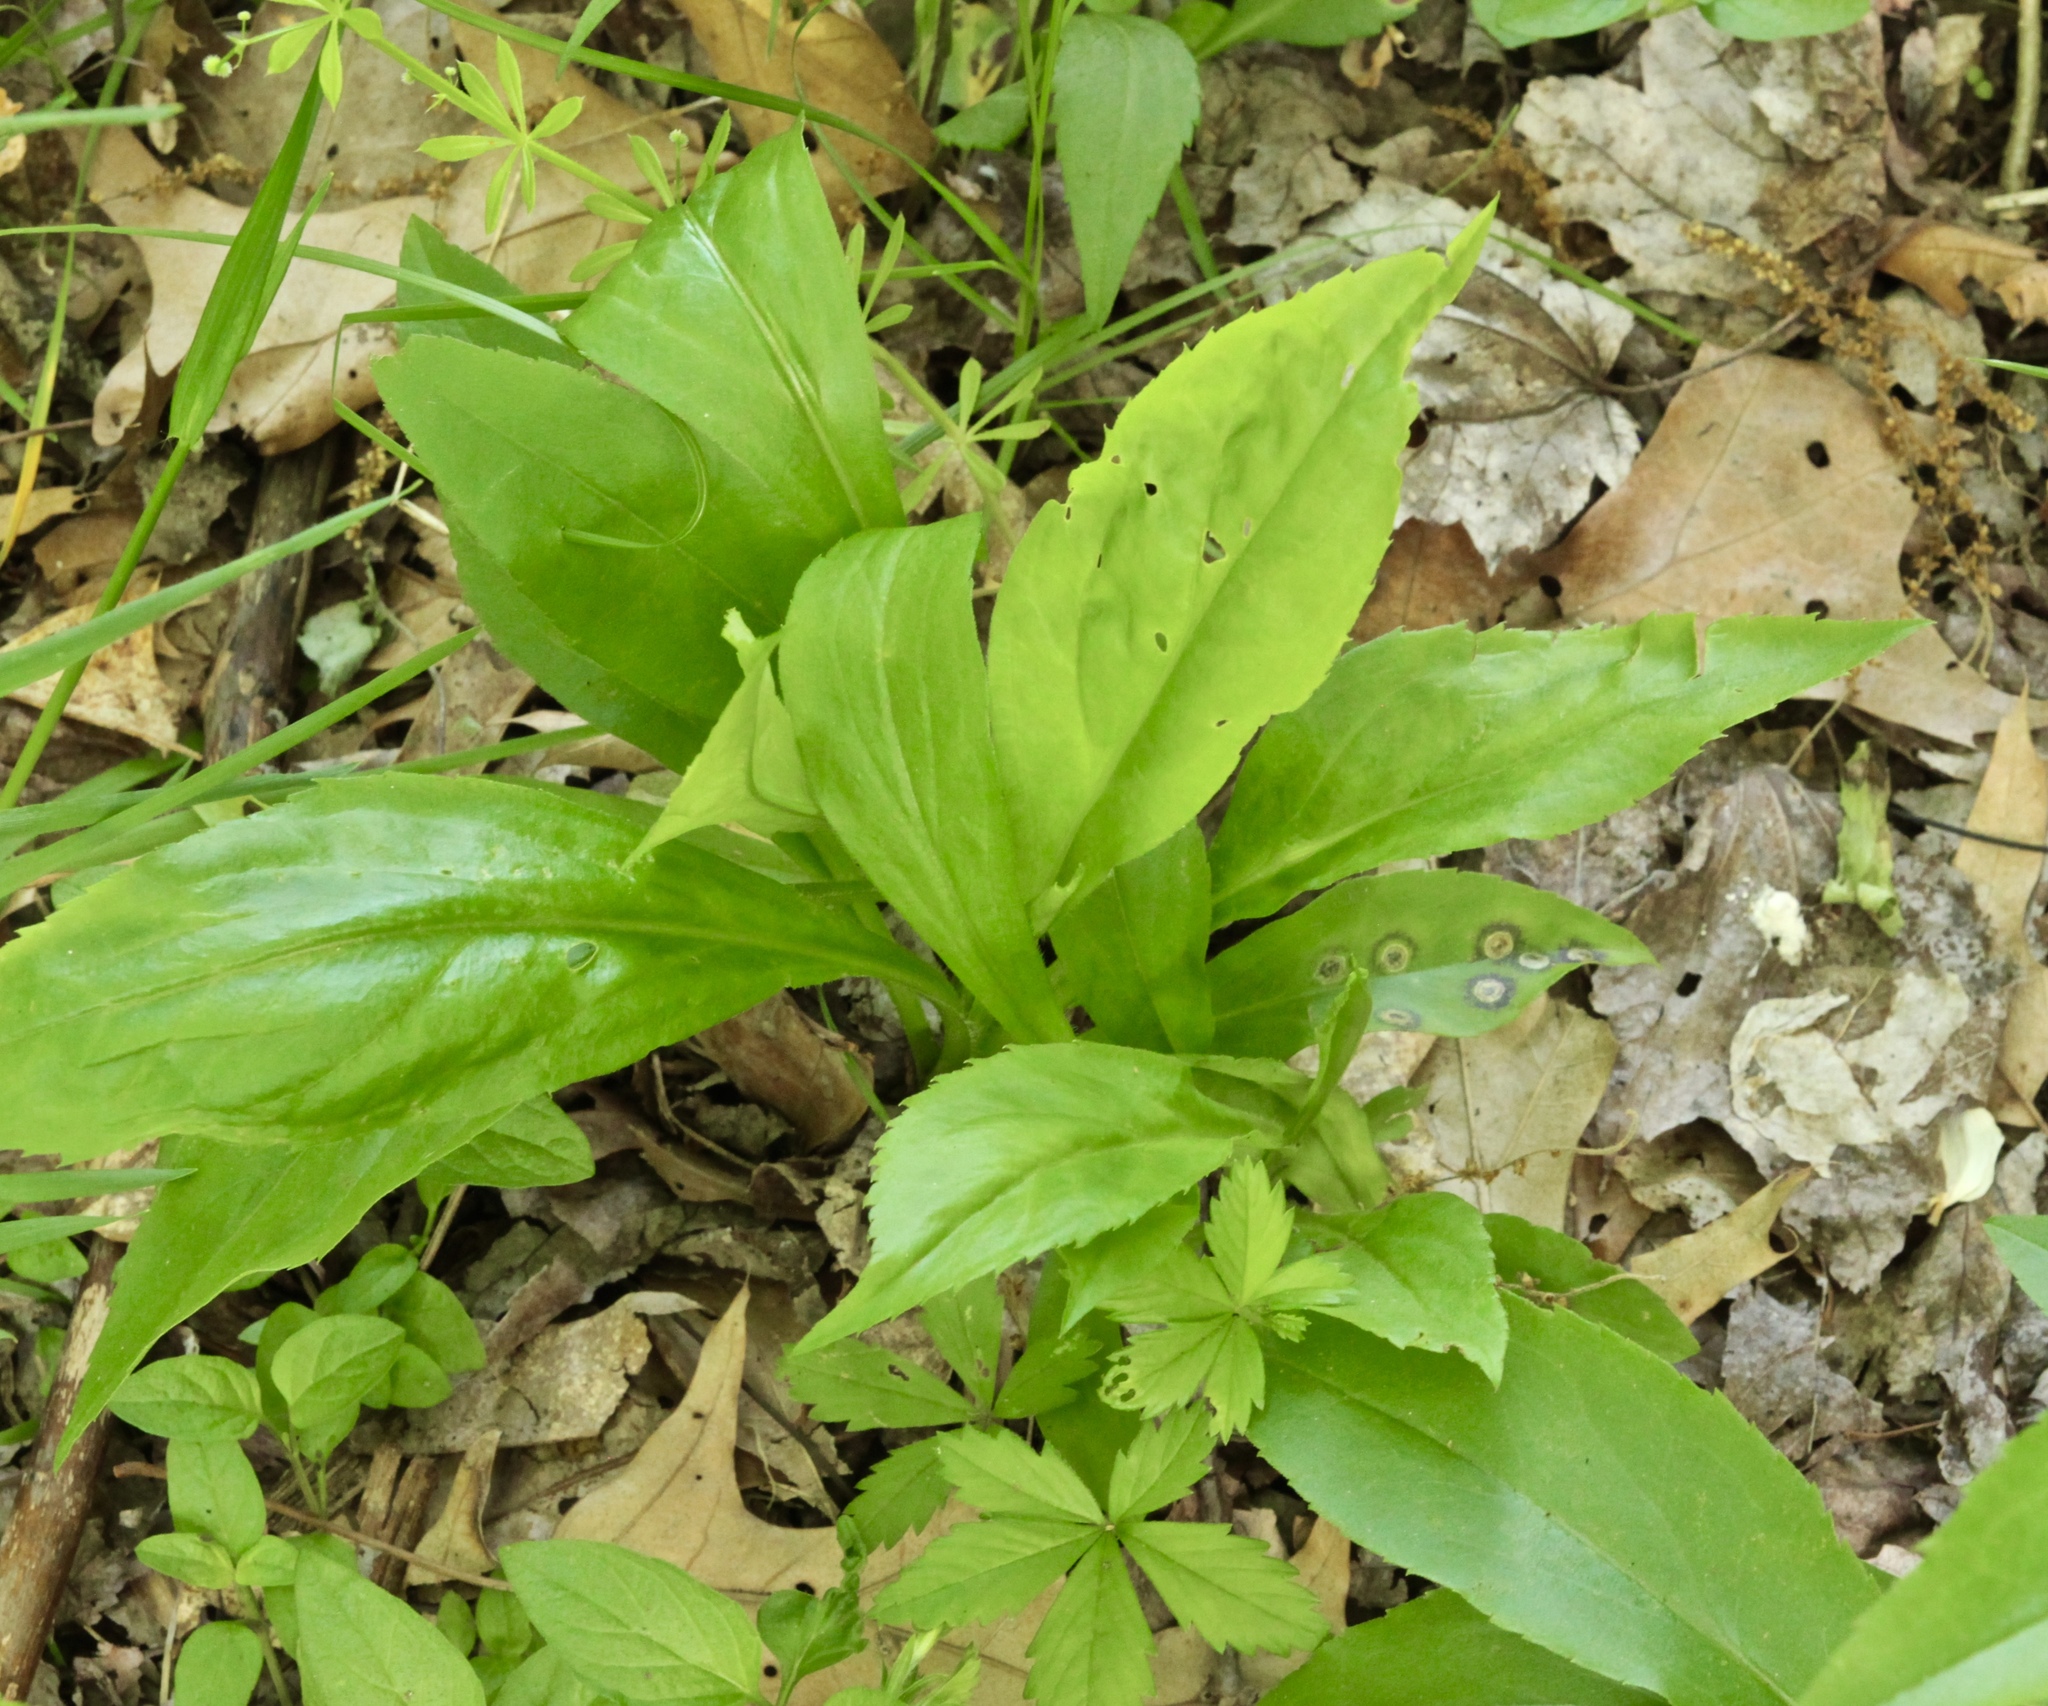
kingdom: Animalia
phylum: Arthropoda
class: Insecta
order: Diptera
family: Cecidomyiidae
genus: Asteromyia
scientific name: Asteromyia carbonifera
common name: Carbonifera goldenrod gall midge
